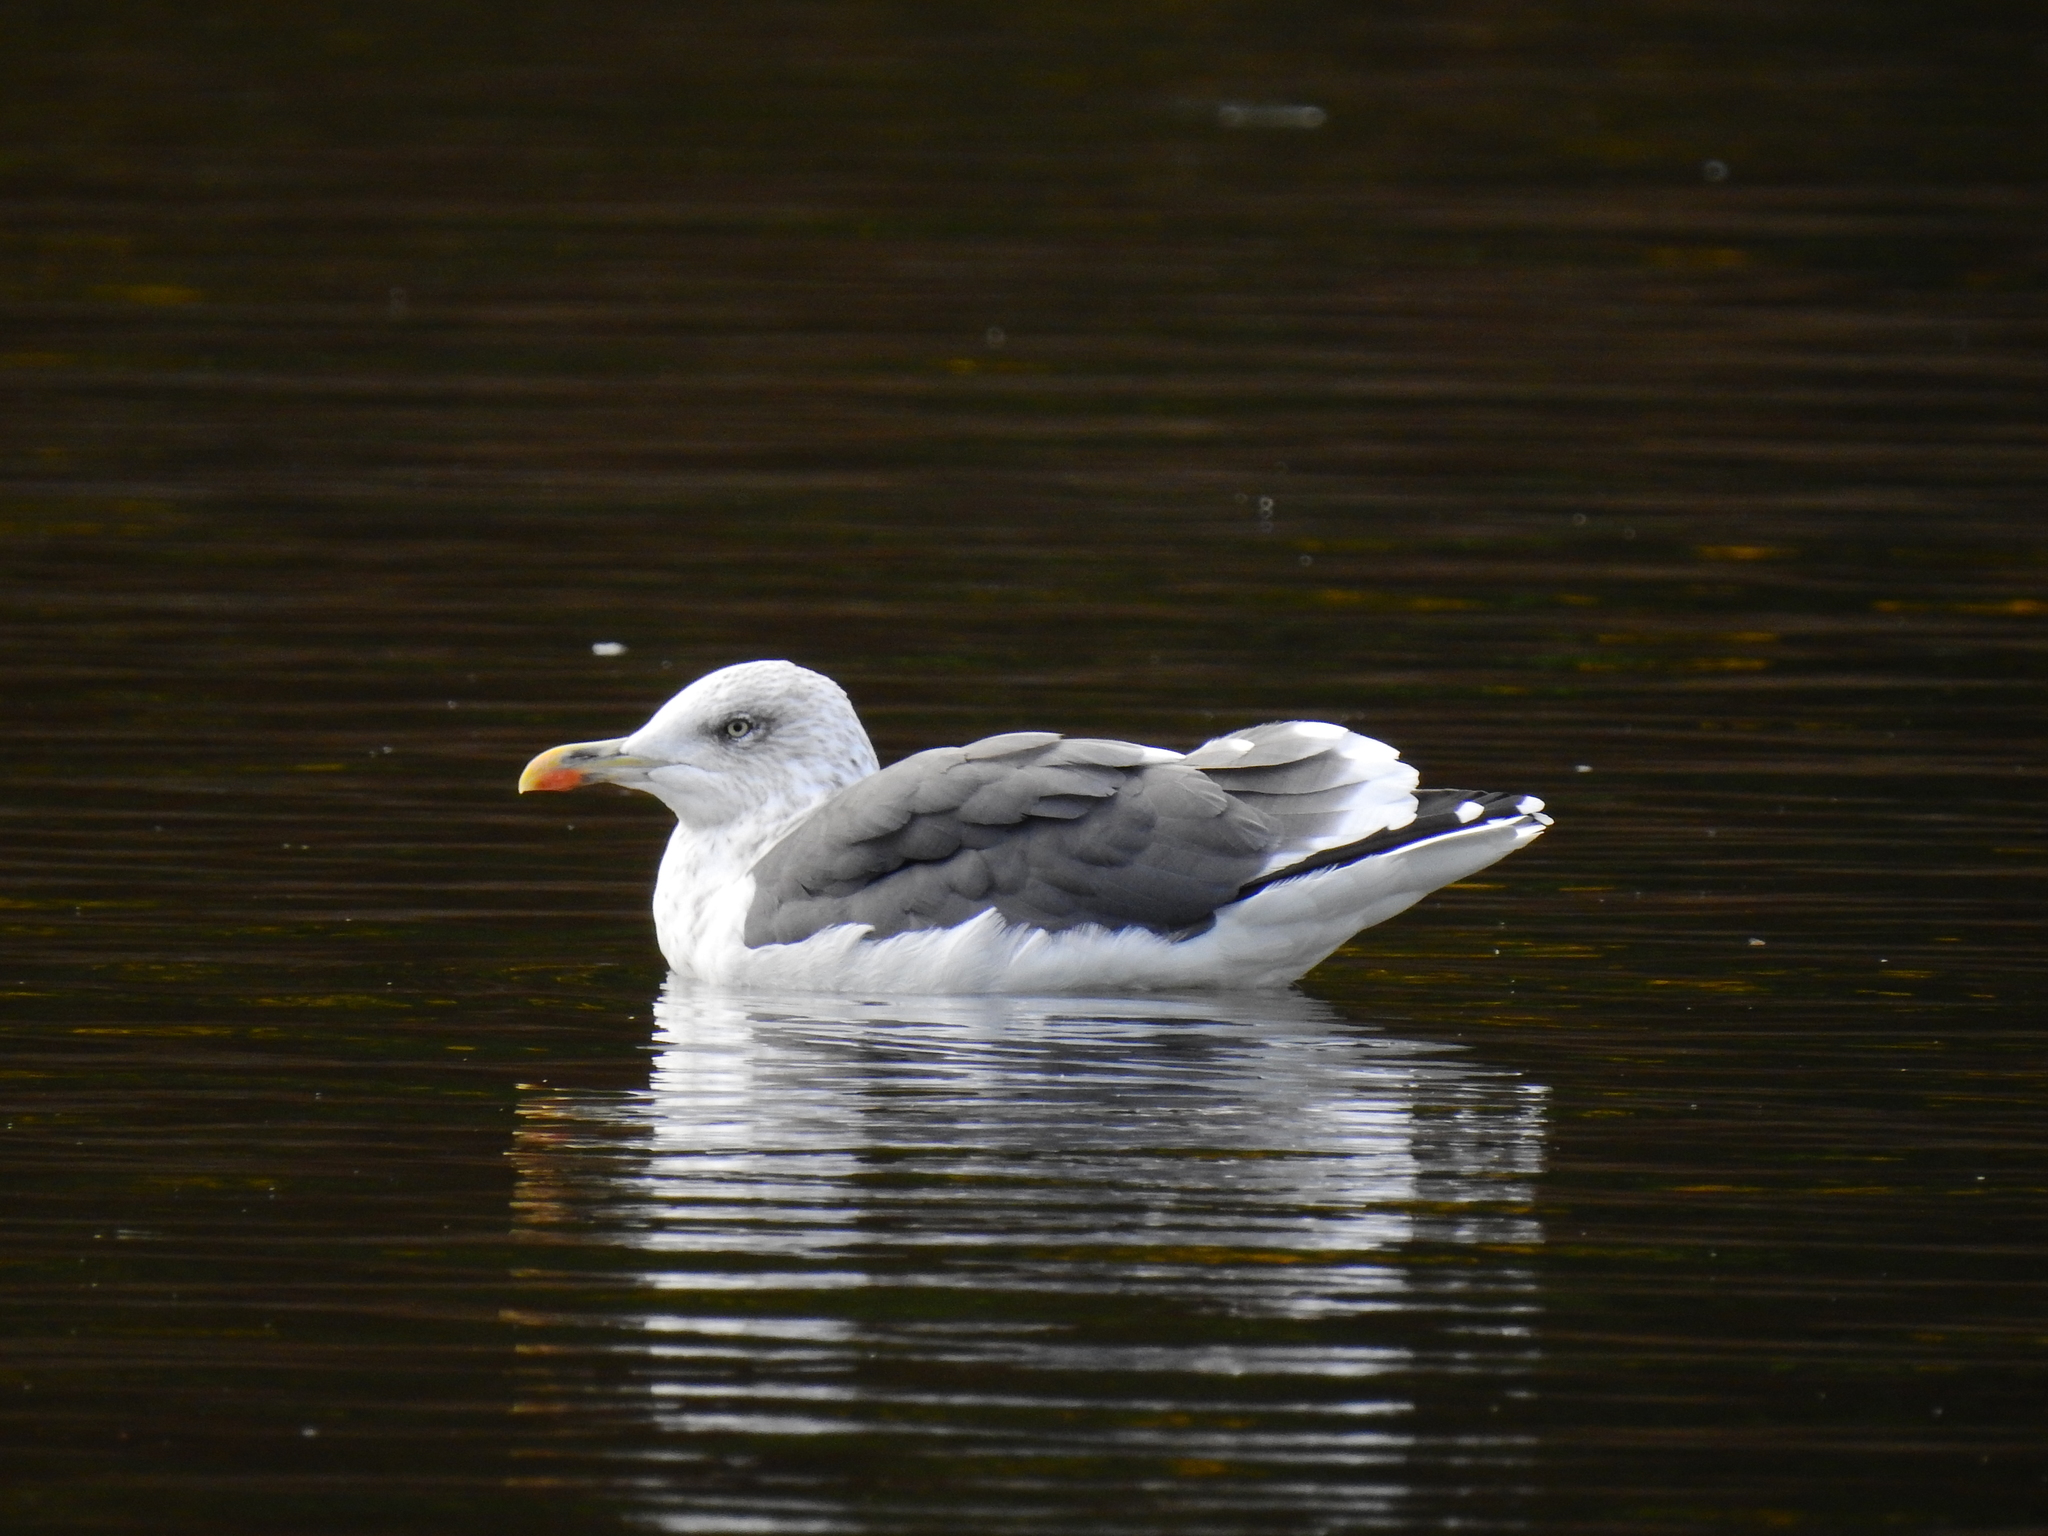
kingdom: Animalia
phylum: Chordata
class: Aves
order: Charadriiformes
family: Laridae
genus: Larus
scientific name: Larus fuscus
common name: Lesser black-backed gull
